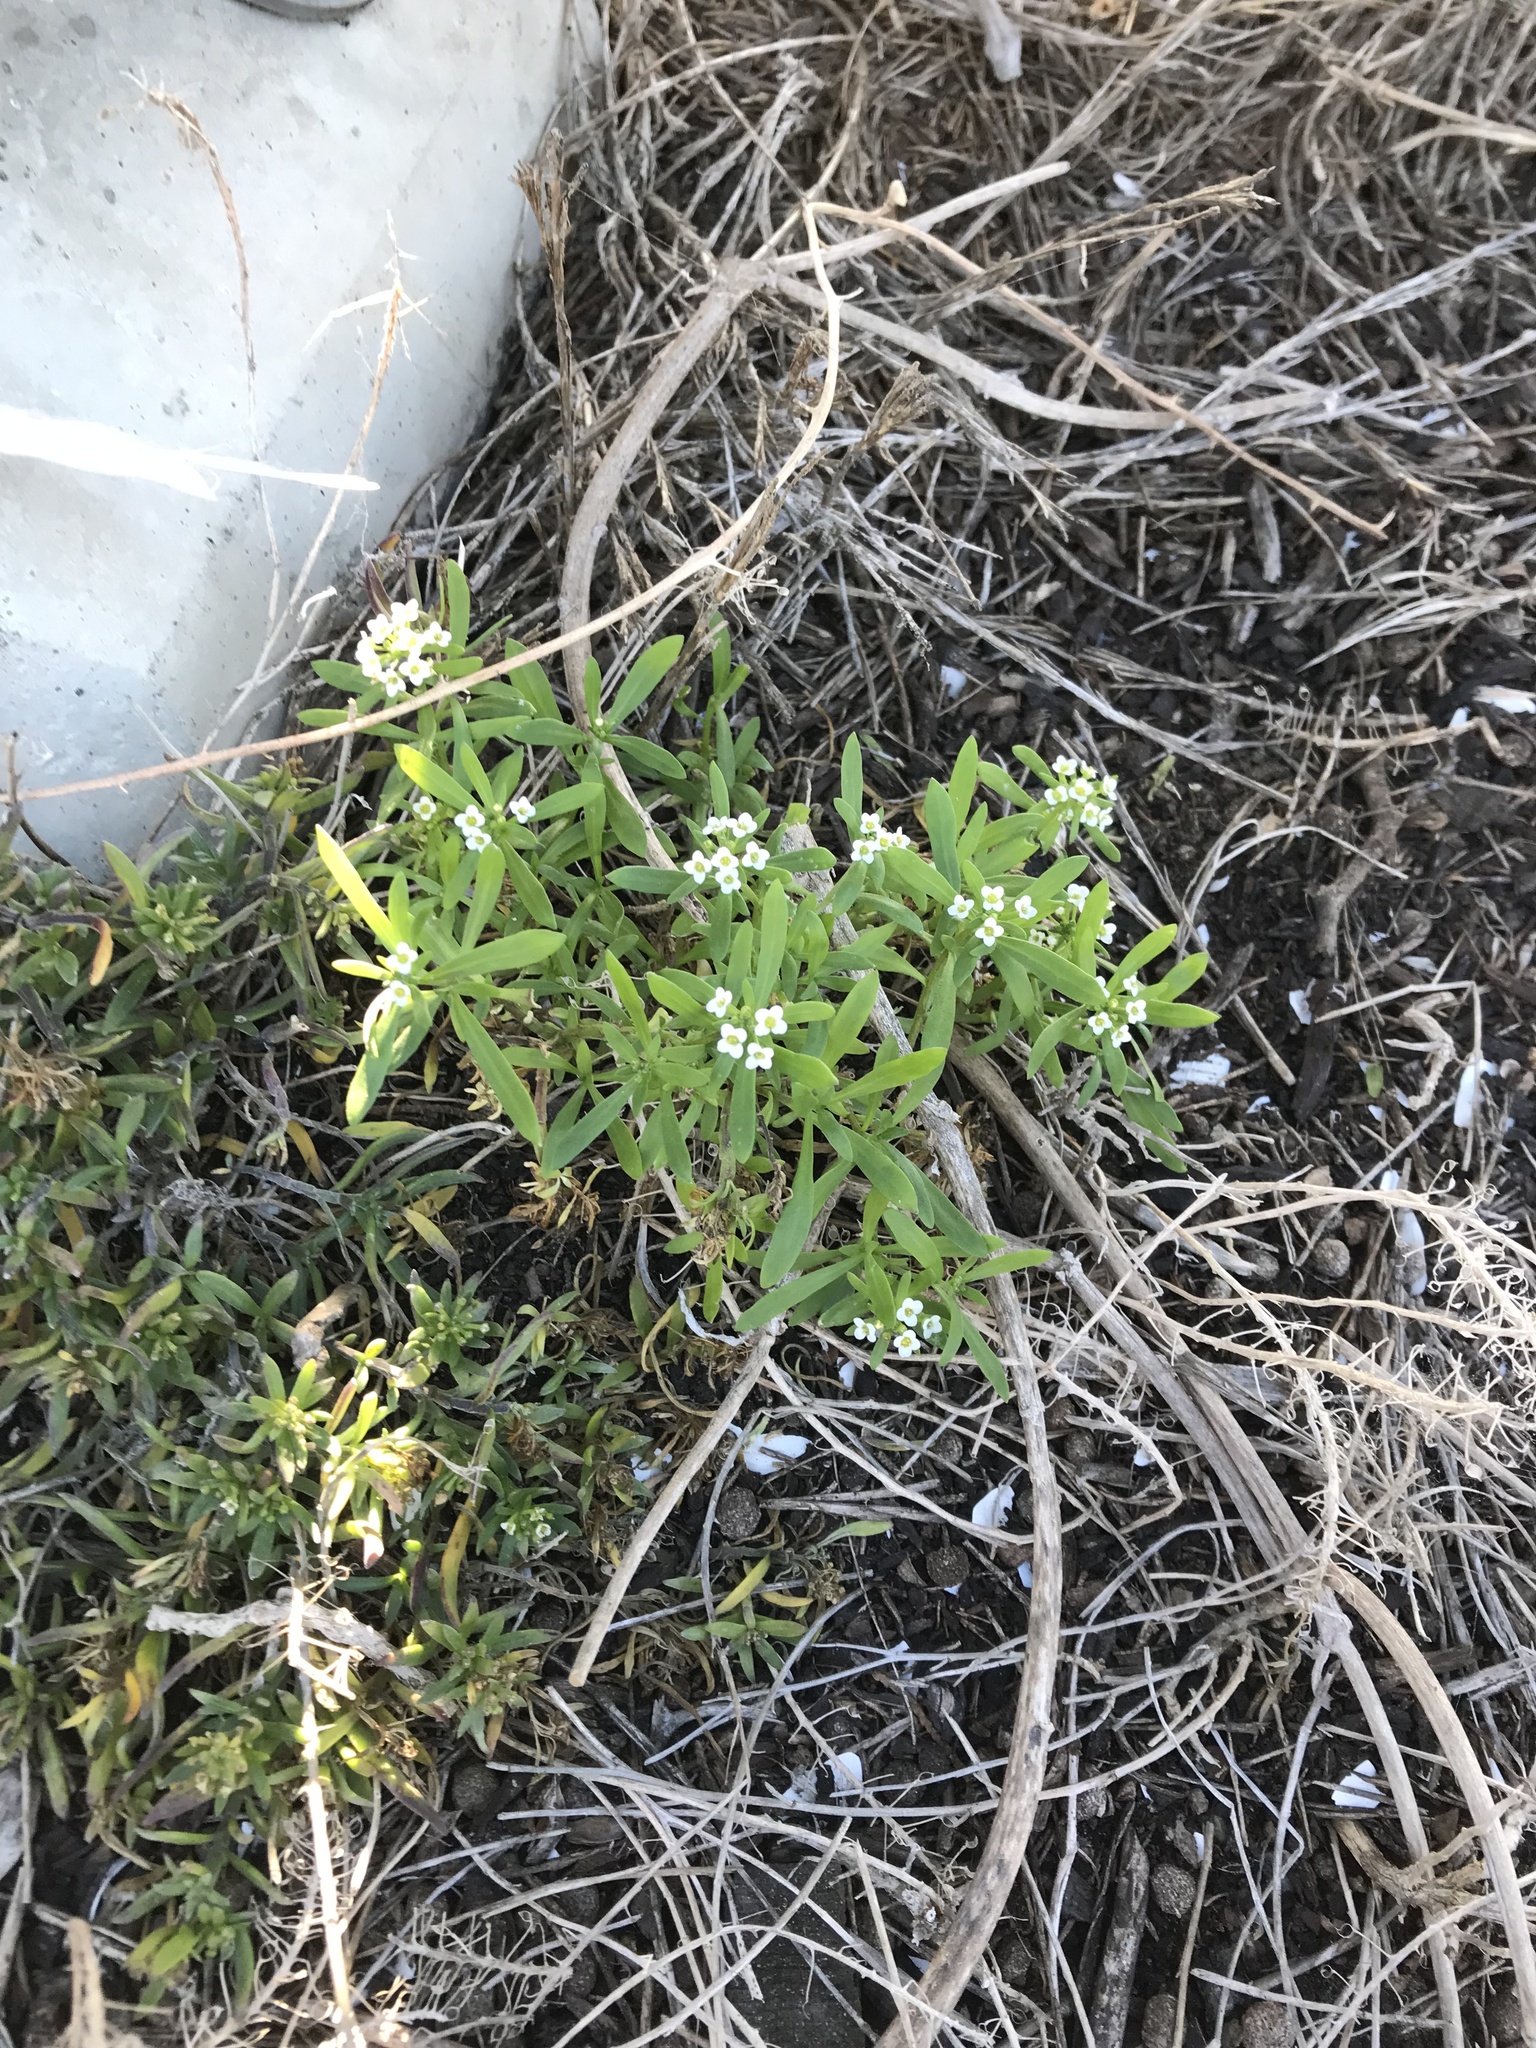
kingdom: Plantae
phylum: Tracheophyta
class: Magnoliopsida
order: Brassicales
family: Brassicaceae
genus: Lobularia
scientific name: Lobularia maritima
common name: Sweet alison
